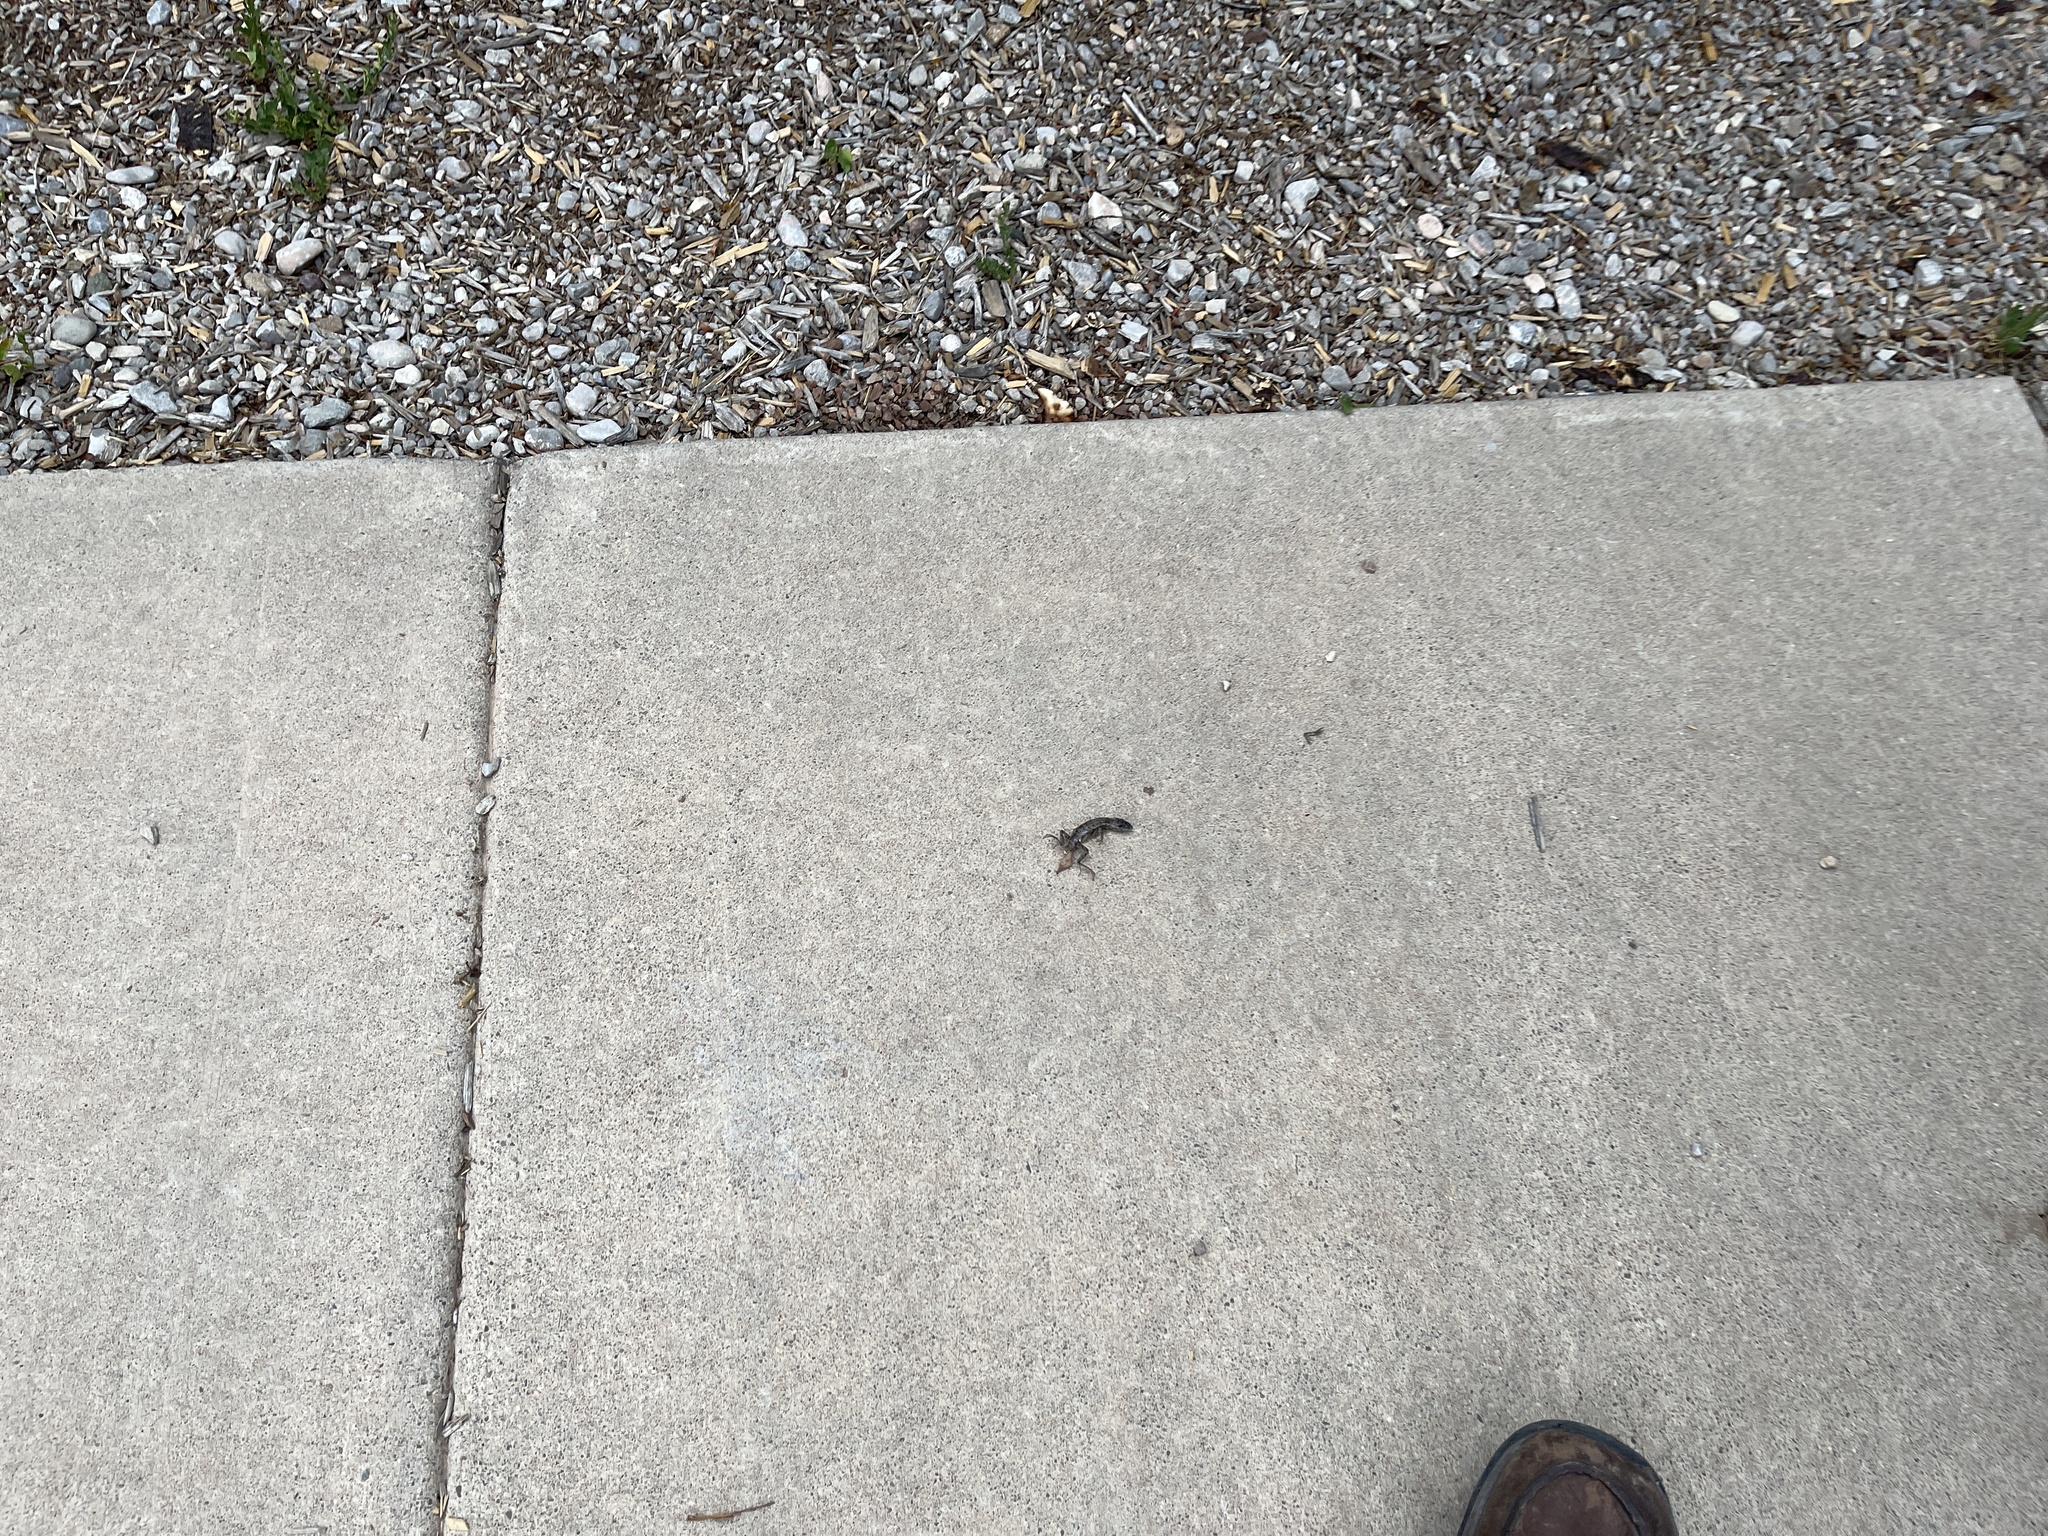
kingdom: Animalia
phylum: Chordata
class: Squamata
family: Phrynosomatidae
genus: Sceloporus
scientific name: Sceloporus cowlesi
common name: White sands prairie lizard
